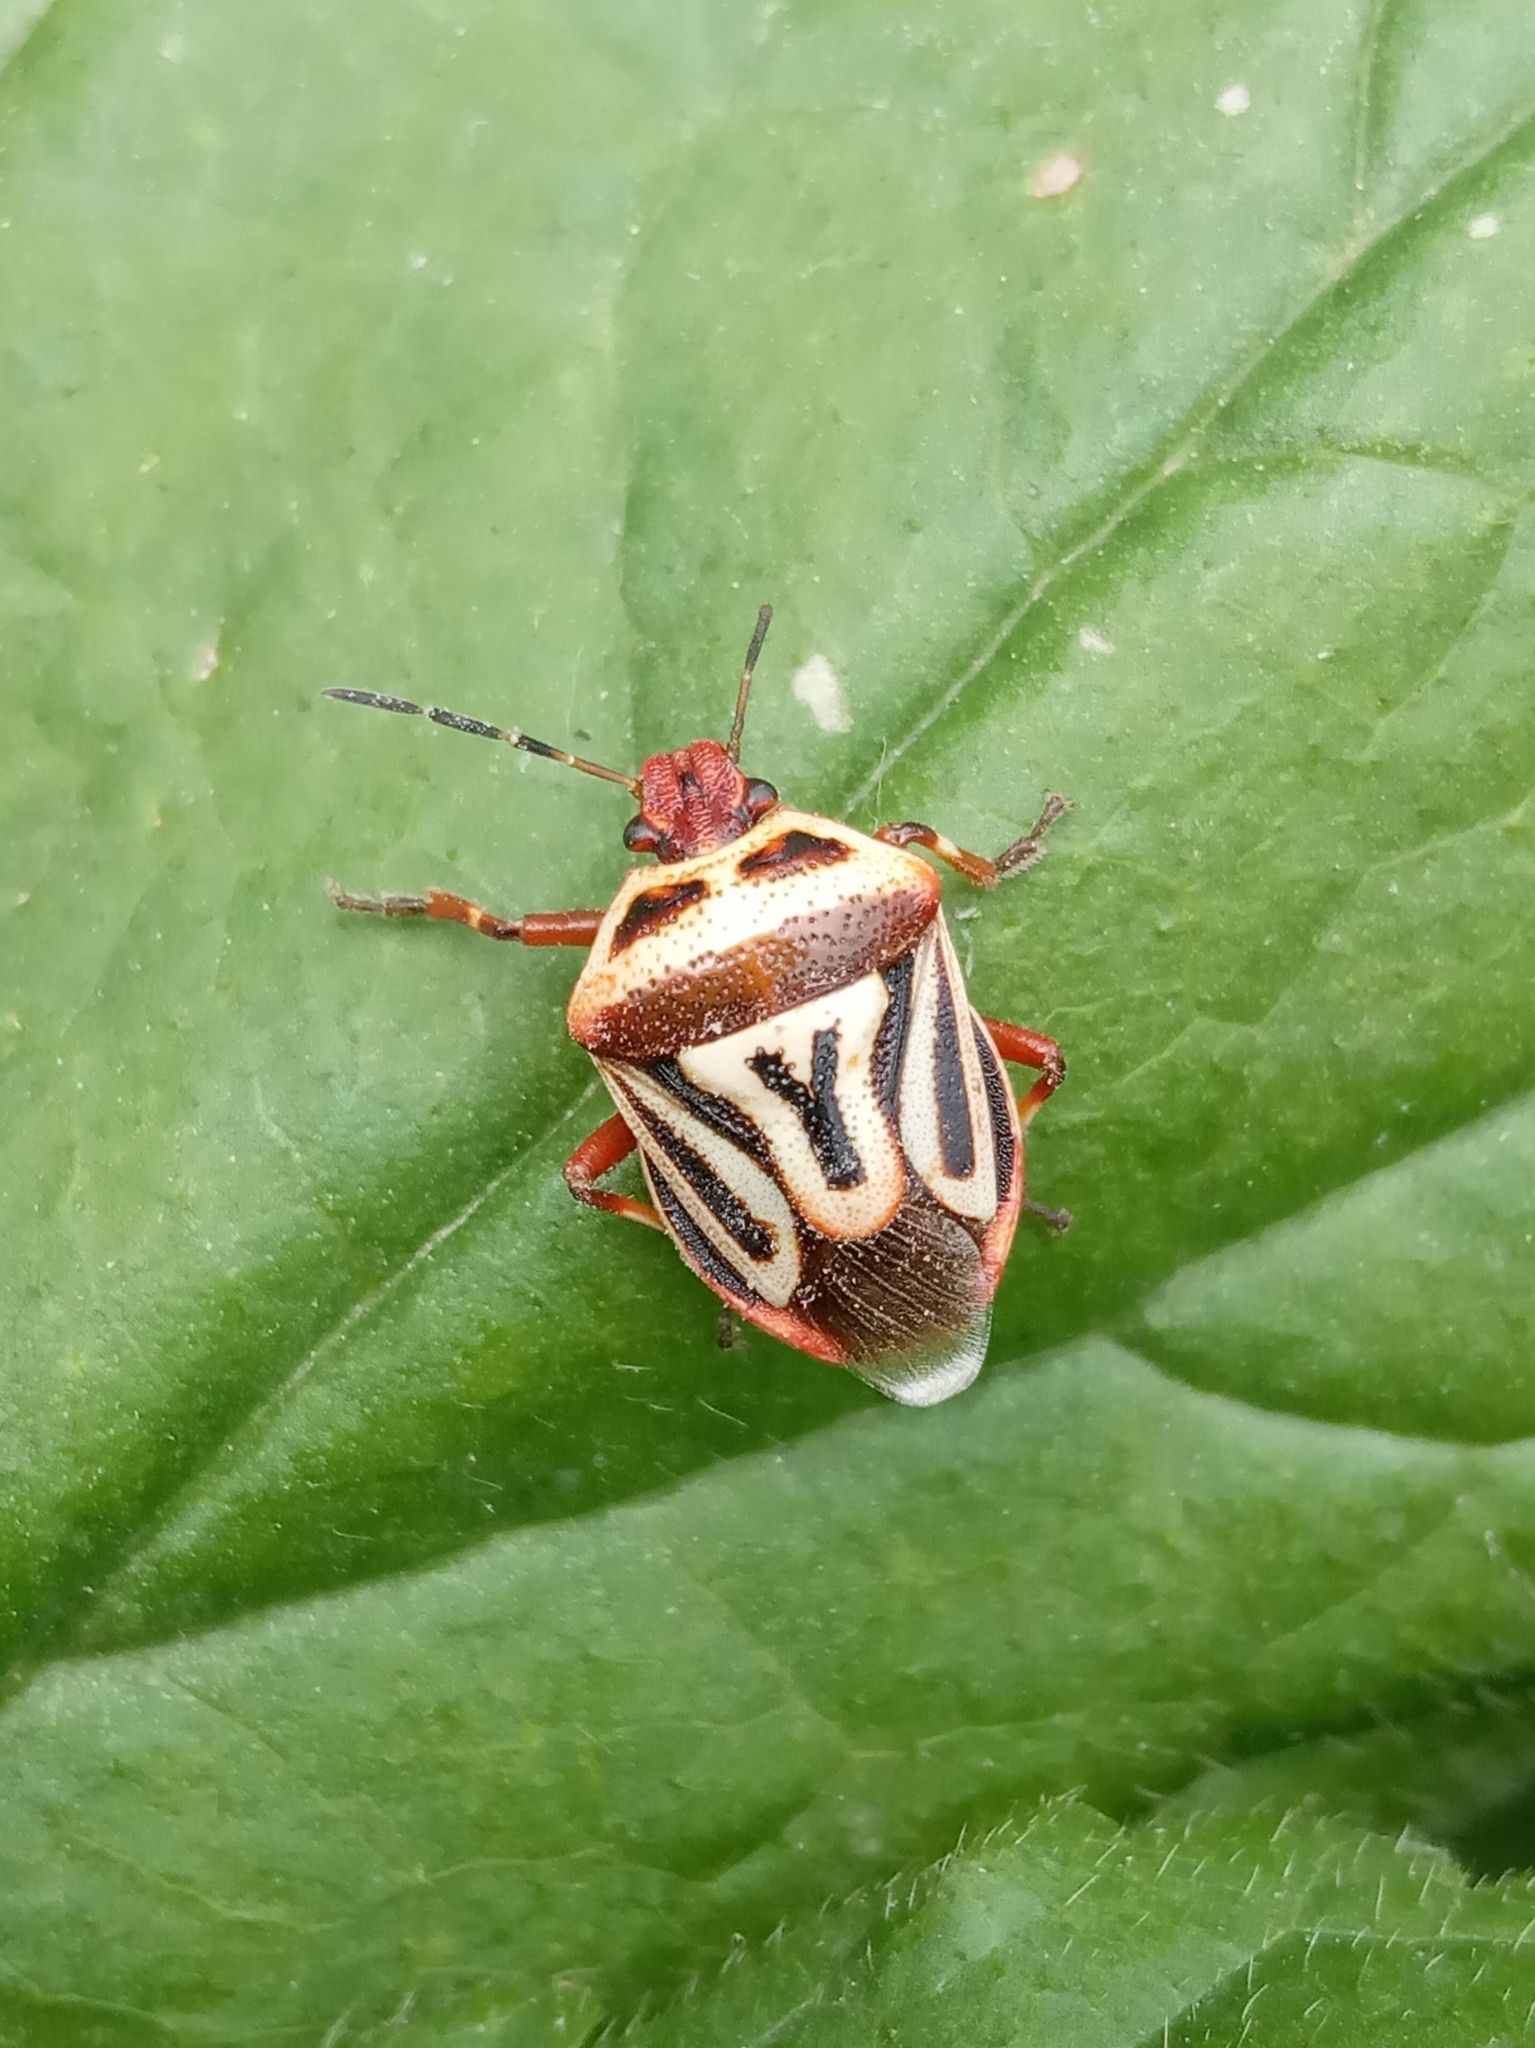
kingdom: Animalia
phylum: Arthropoda
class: Insecta
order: Hemiptera
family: Pentatomidae
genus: Perillus
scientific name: Perillus bioculatus
